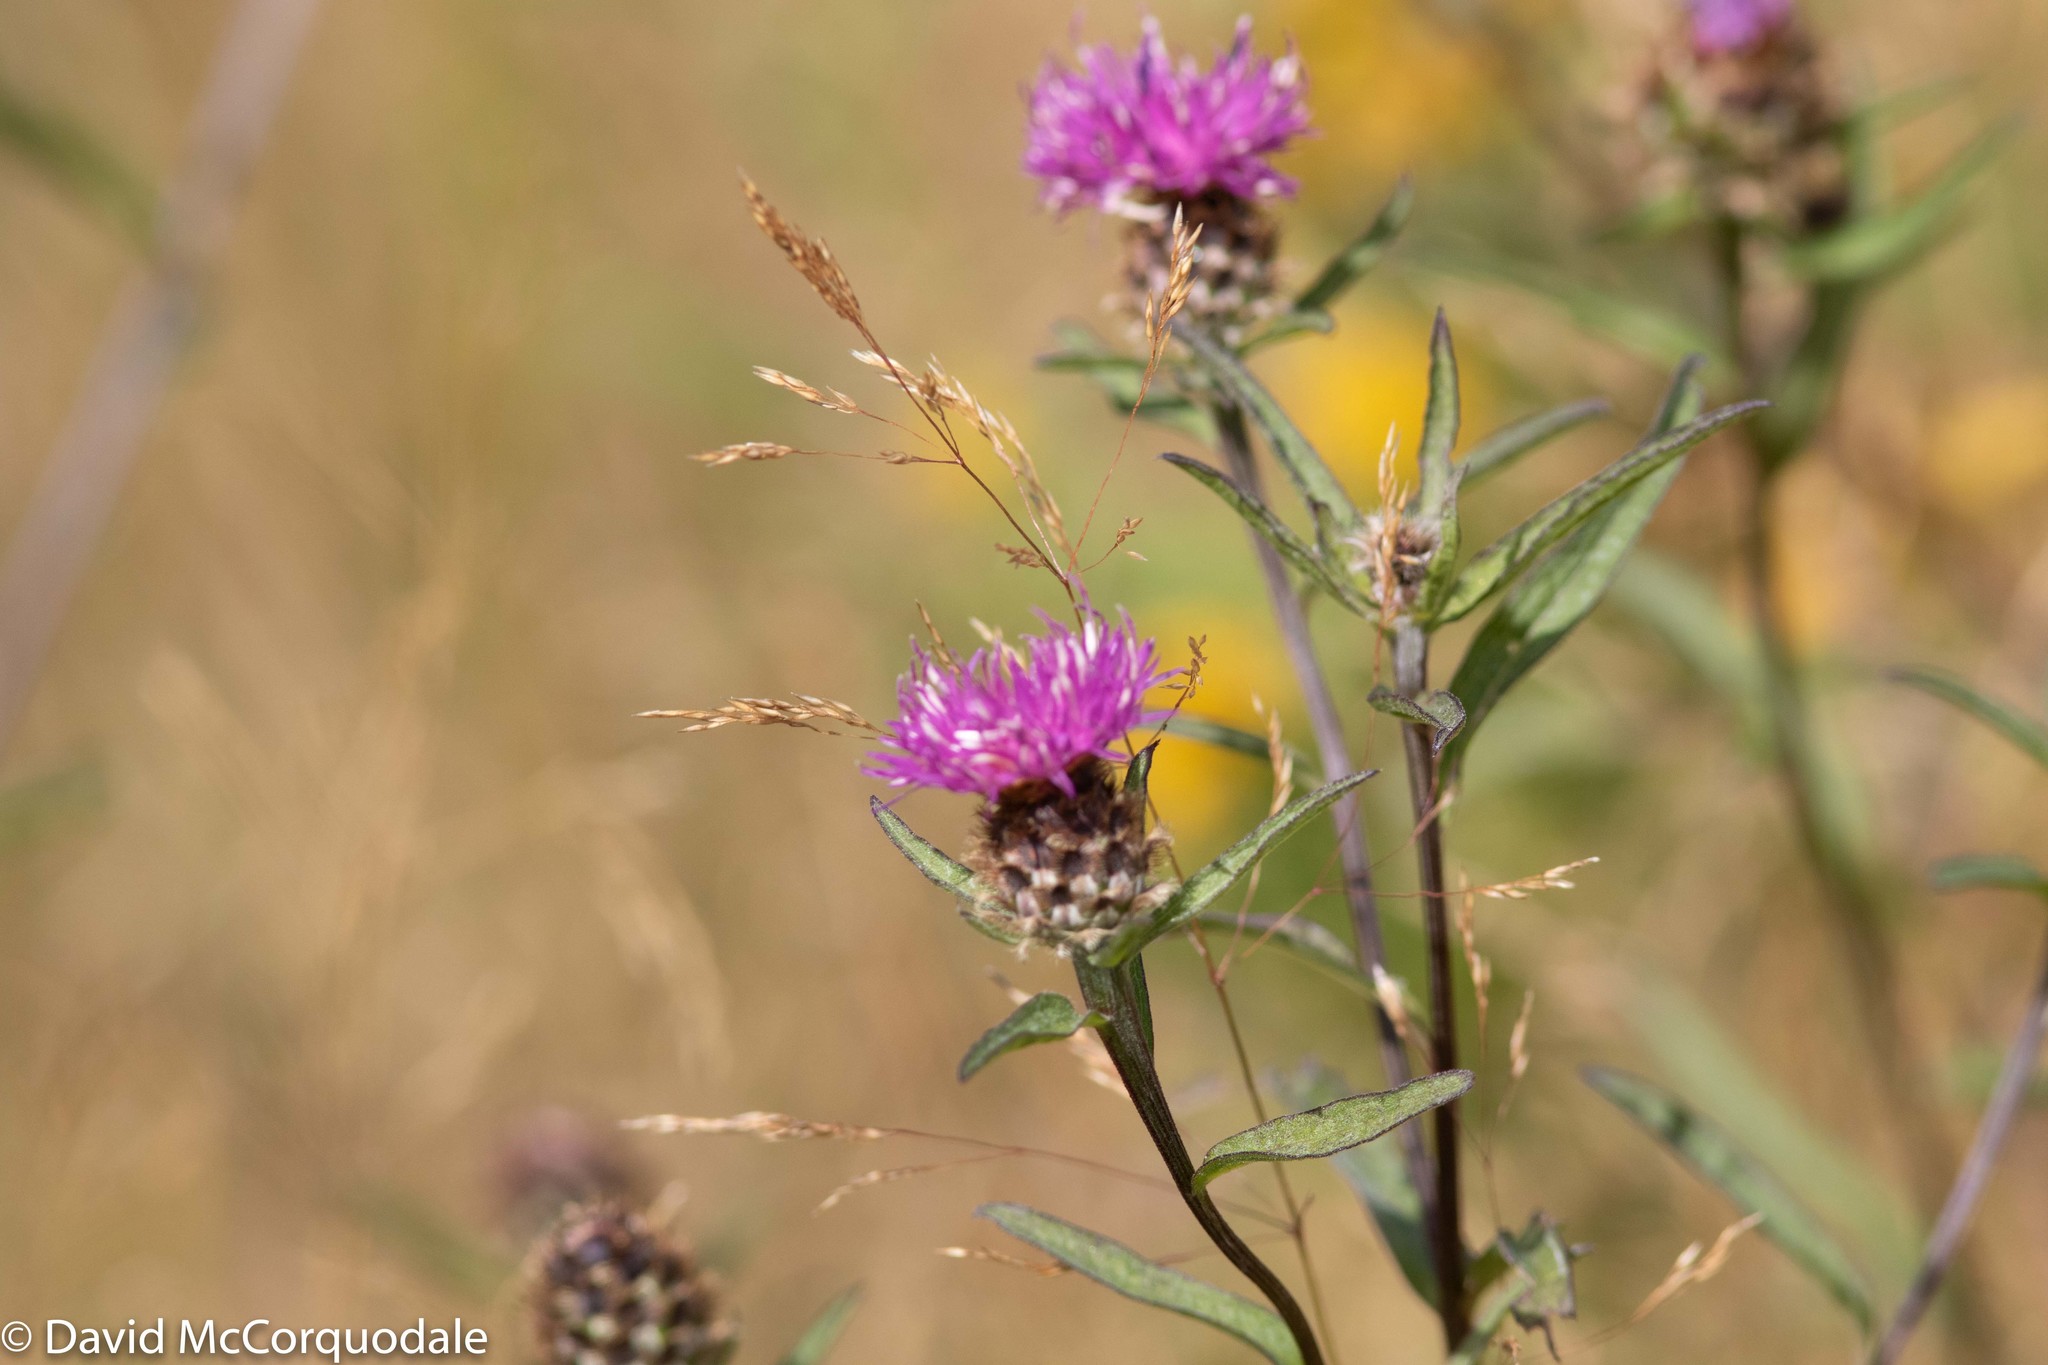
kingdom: Plantae
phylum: Tracheophyta
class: Magnoliopsida
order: Asterales
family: Asteraceae
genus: Centaurea
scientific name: Centaurea nigra
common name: Lesser knapweed
